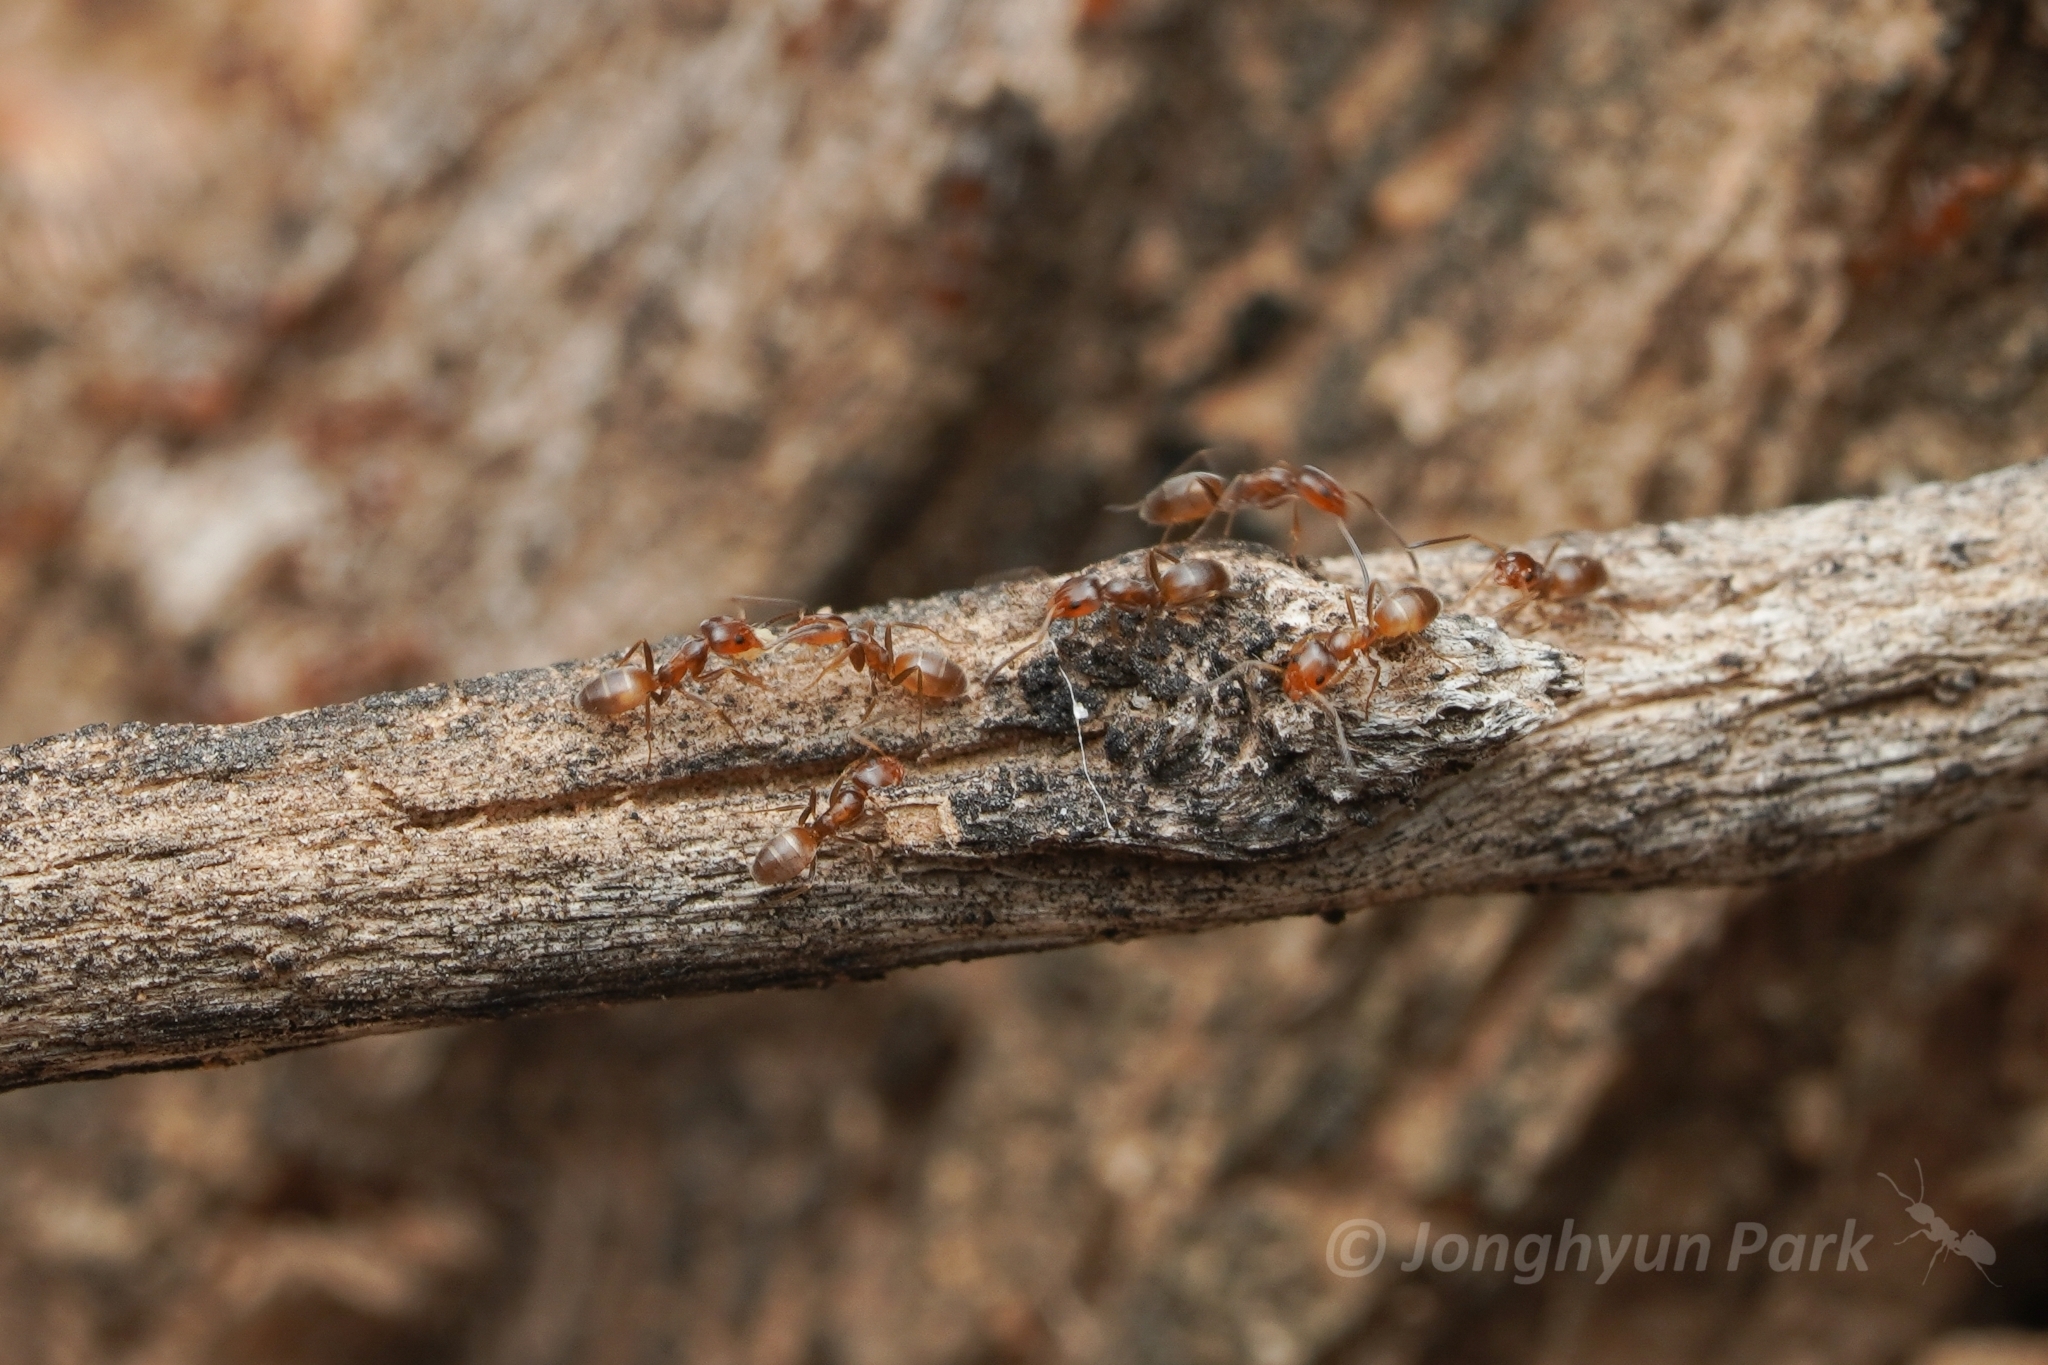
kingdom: Animalia
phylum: Arthropoda
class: Insecta
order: Hymenoptera
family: Formicidae
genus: Forelius
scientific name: Forelius pruinosus
